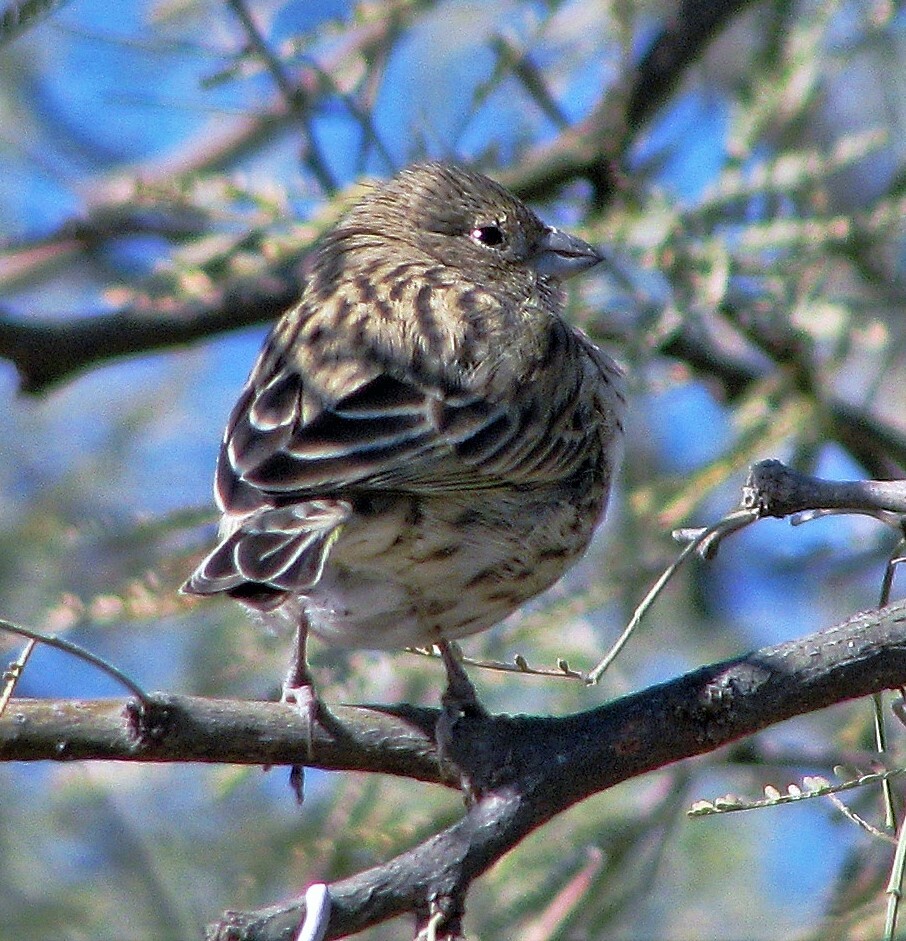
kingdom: Animalia
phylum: Chordata
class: Aves
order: Passeriformes
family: Thraupidae
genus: Sicalis
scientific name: Sicalis flaveola
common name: Saffron finch
